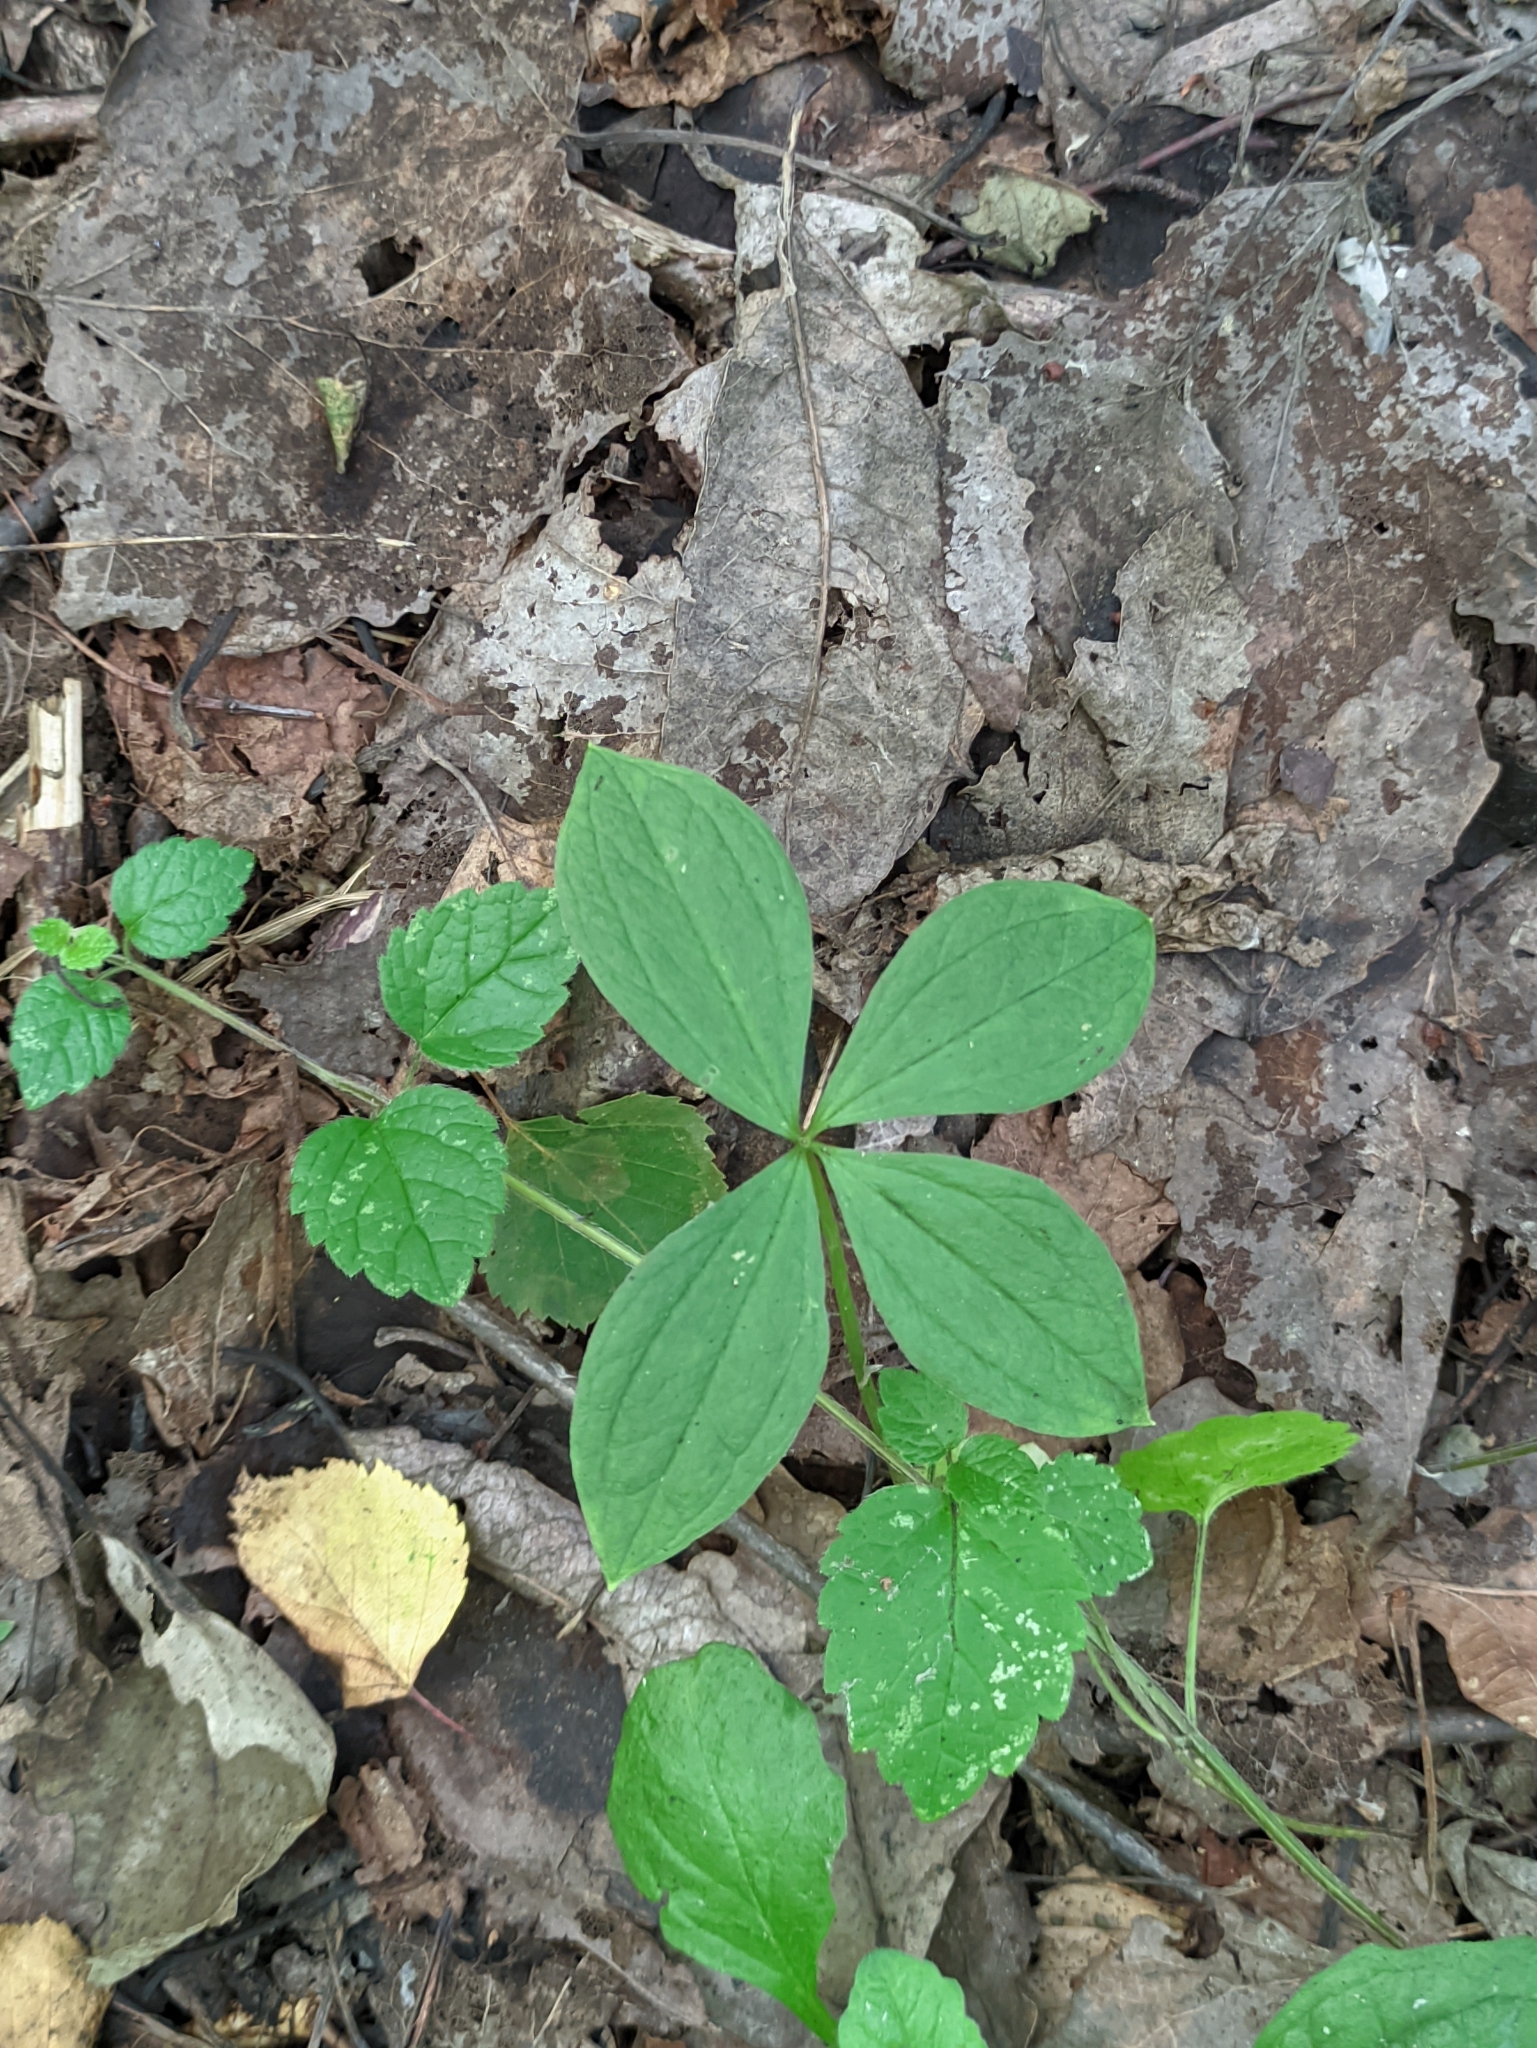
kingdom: Plantae
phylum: Tracheophyta
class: Liliopsida
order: Liliales
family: Melanthiaceae
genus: Paris
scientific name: Paris quadrifolia
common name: Herb-paris
